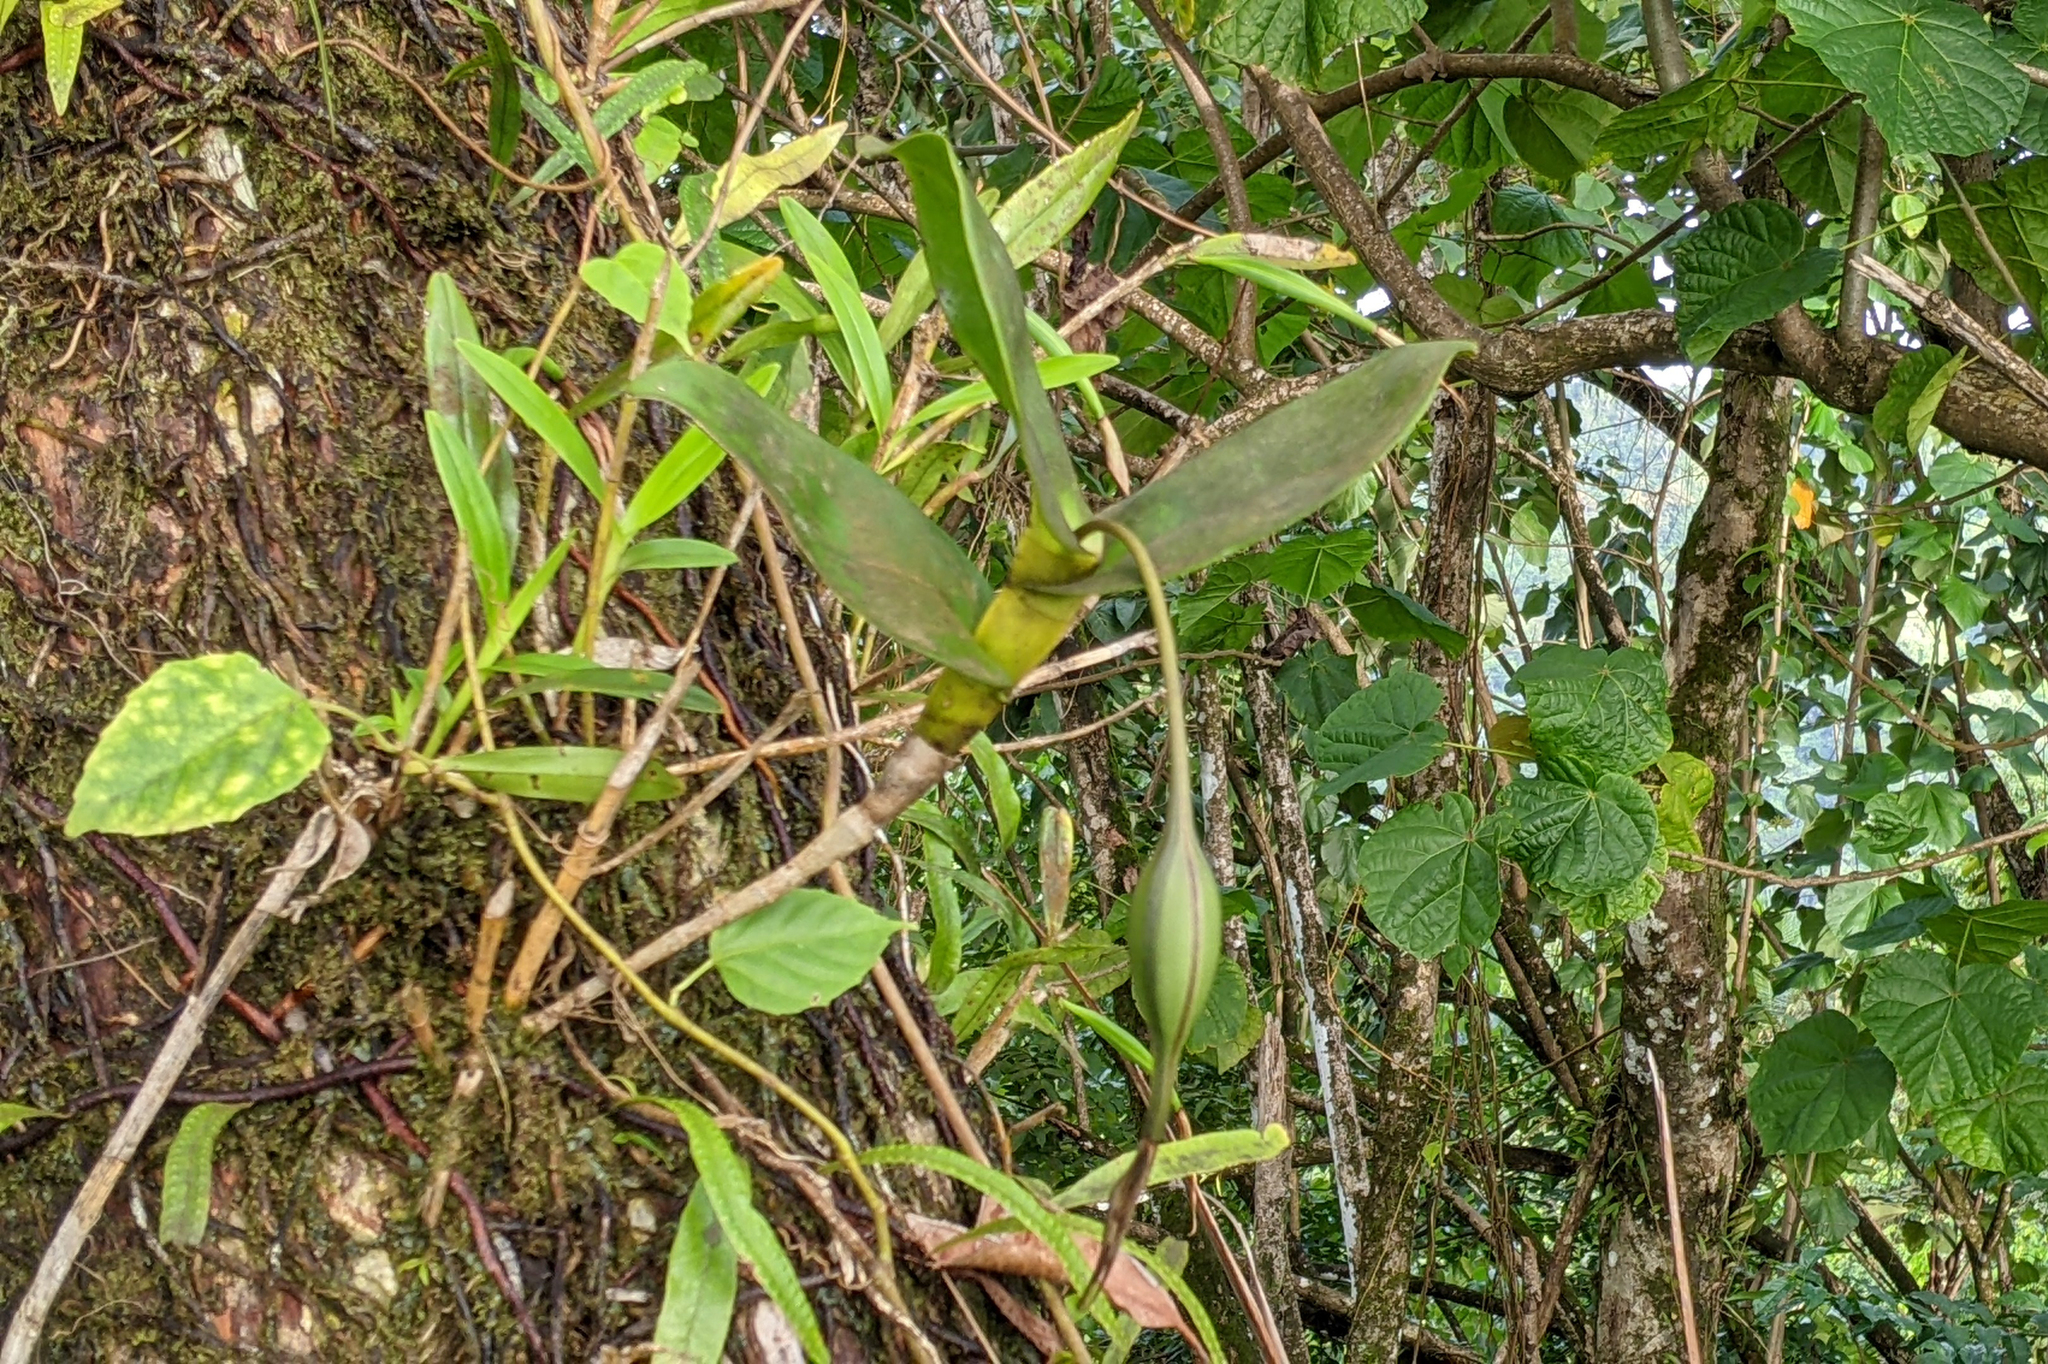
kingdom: Plantae
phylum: Tracheophyta
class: Liliopsida
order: Asparagales
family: Orchidaceae
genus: Epidendrum
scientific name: Epidendrum angustilobum
